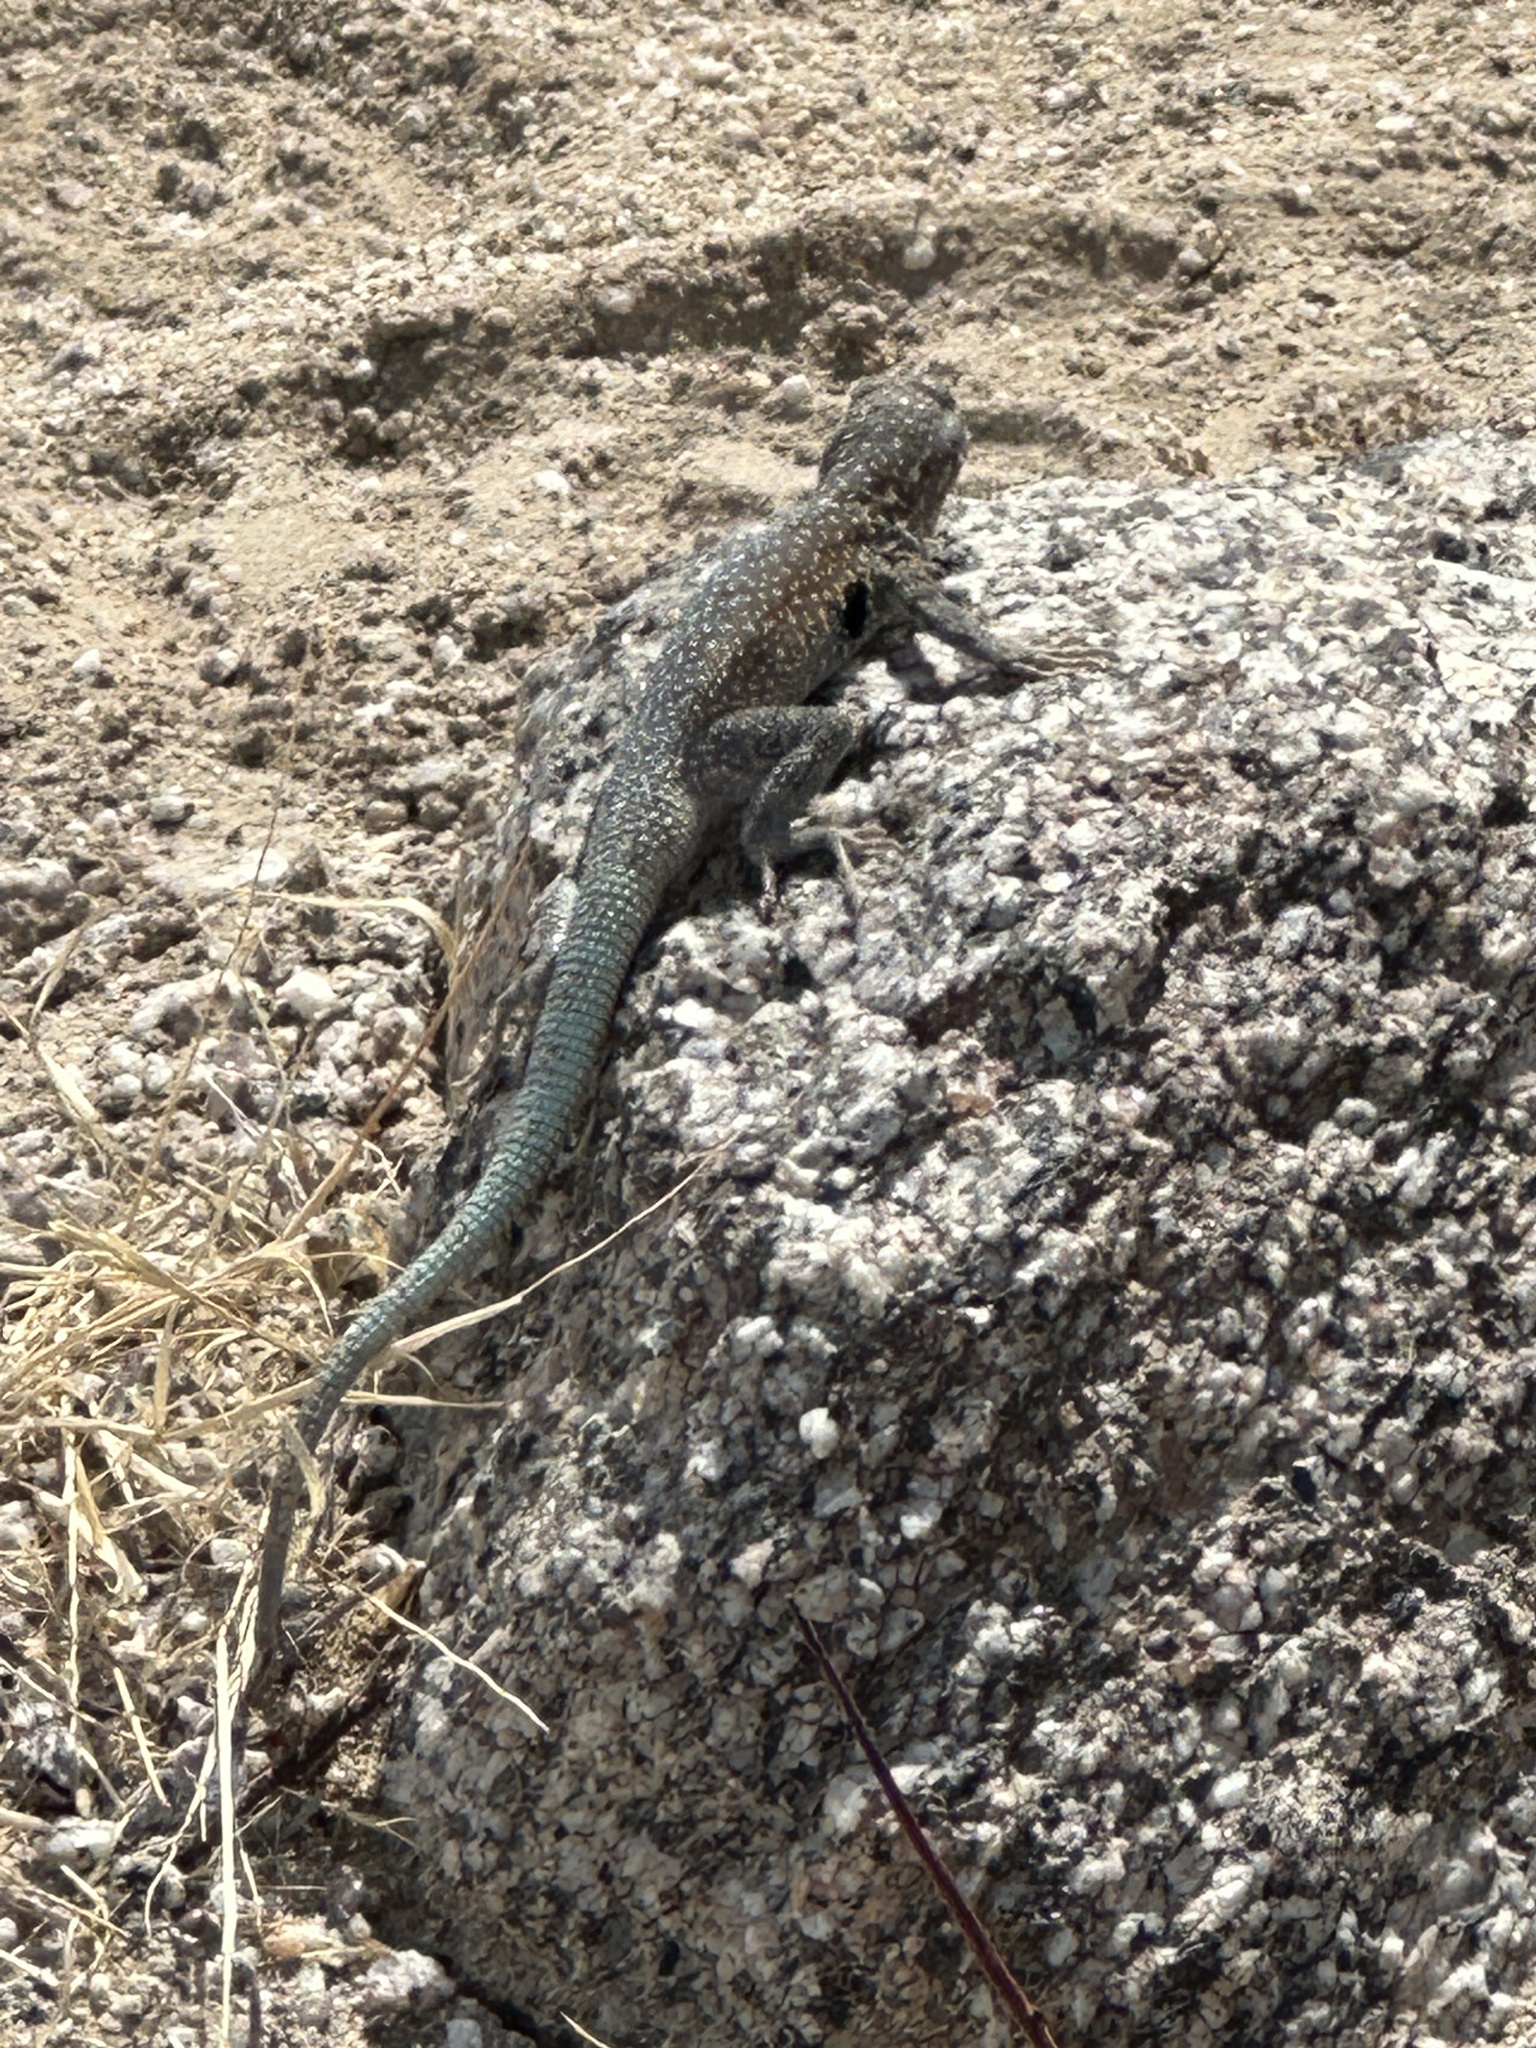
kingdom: Animalia
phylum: Chordata
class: Squamata
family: Phrynosomatidae
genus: Uta
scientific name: Uta stansburiana
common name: Side-blotched lizard
